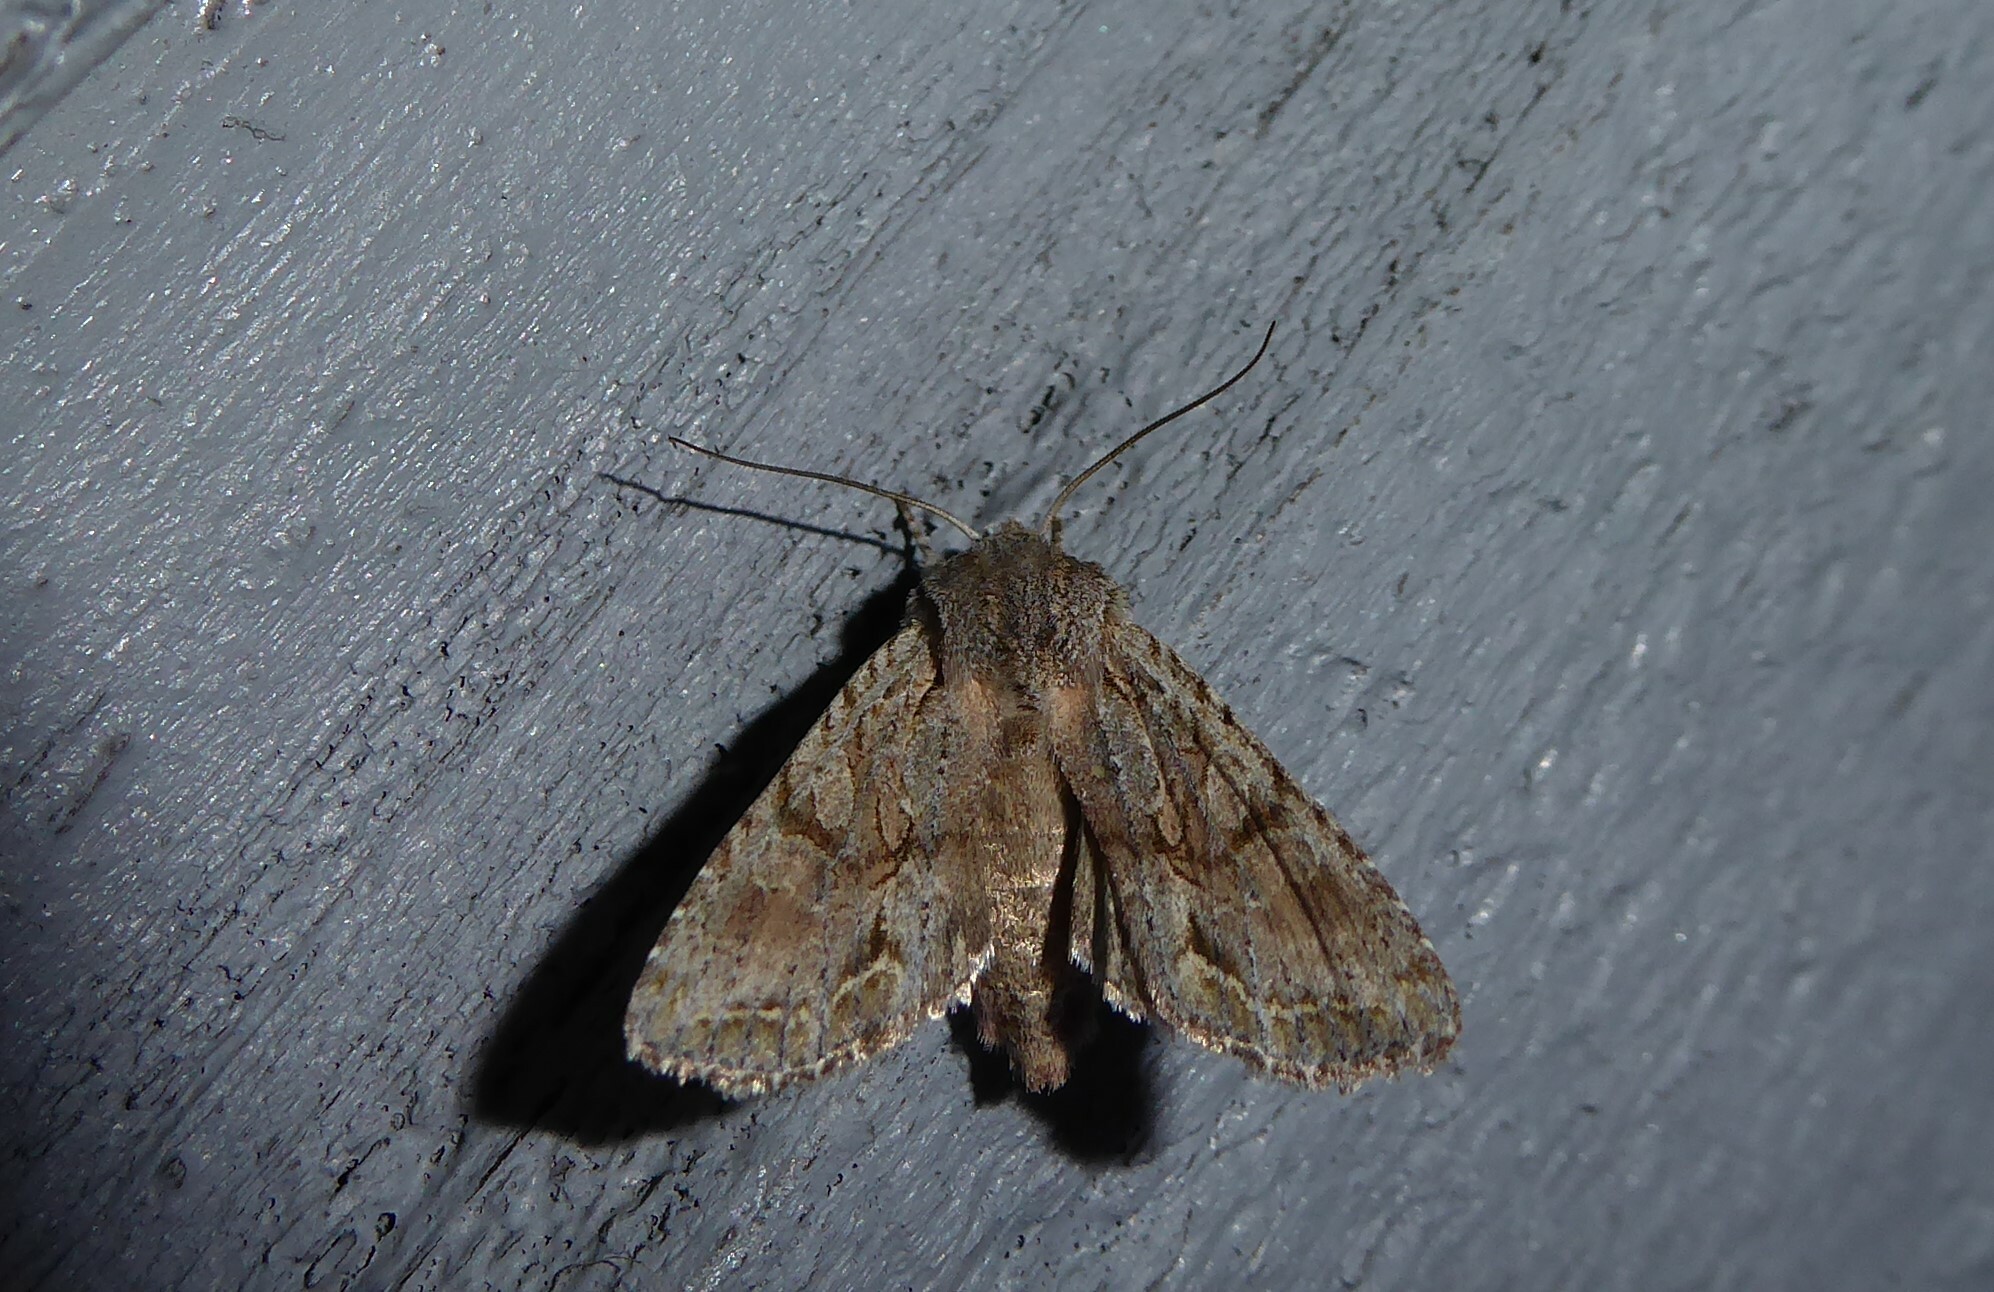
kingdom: Animalia
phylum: Arthropoda
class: Insecta
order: Lepidoptera
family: Noctuidae
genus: Ichneutica
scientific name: Ichneutica mutans
